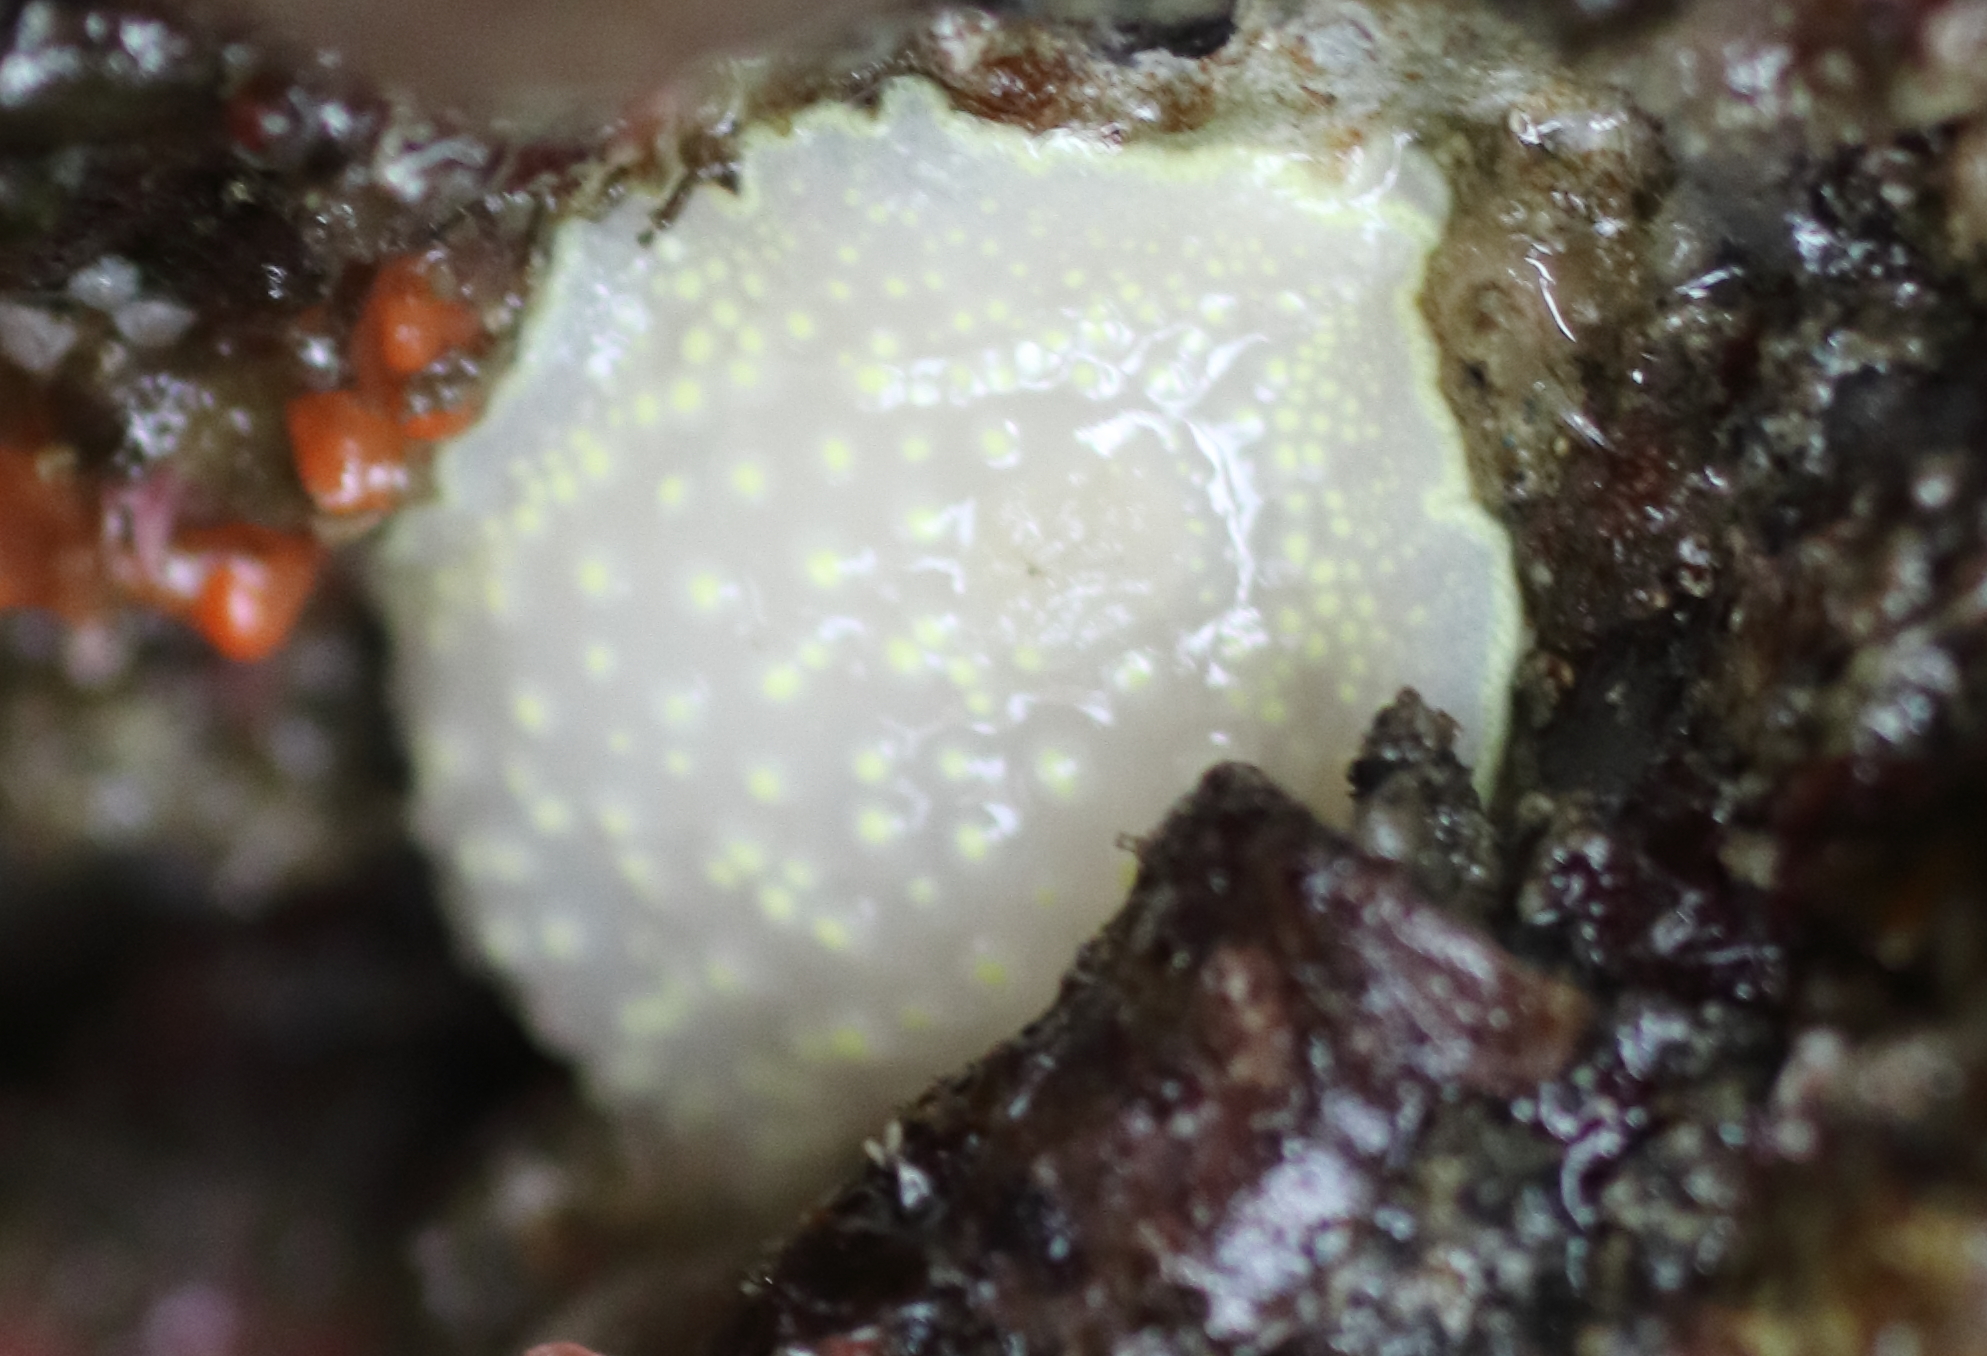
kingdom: Animalia
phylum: Mollusca
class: Gastropoda
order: Nudibranchia
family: Cadlinidae
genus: Cadlina
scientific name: Cadlina luteomarginata
